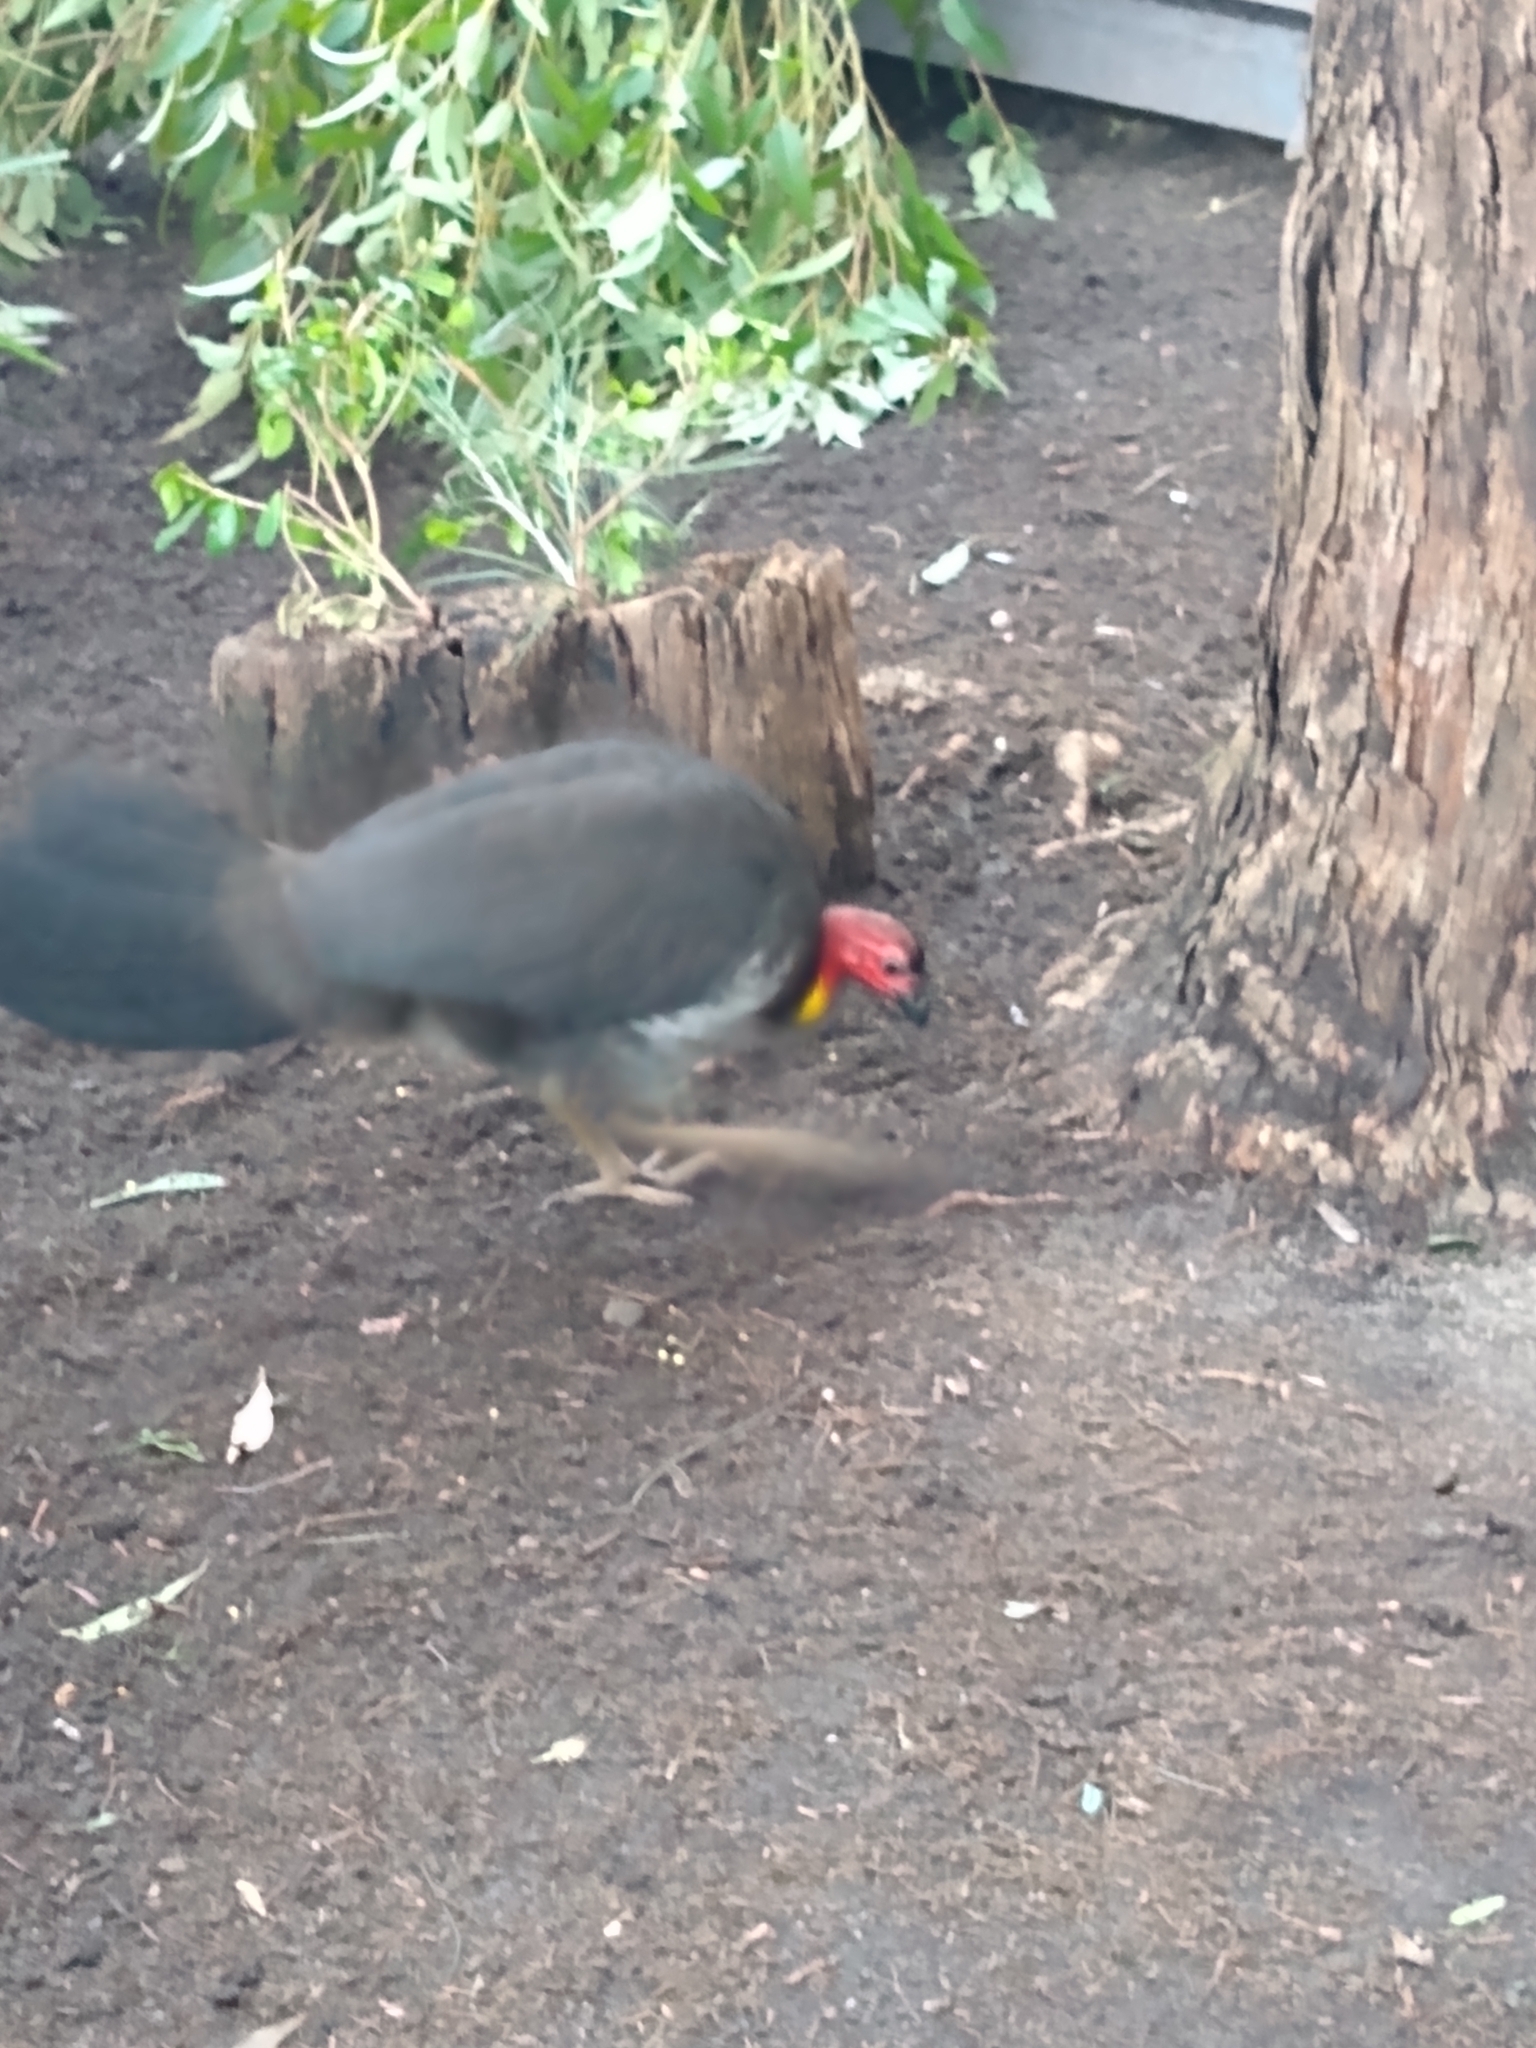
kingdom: Animalia
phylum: Chordata
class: Aves
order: Galliformes
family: Megapodiidae
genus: Alectura
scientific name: Alectura lathami
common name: Australian brushturkey
